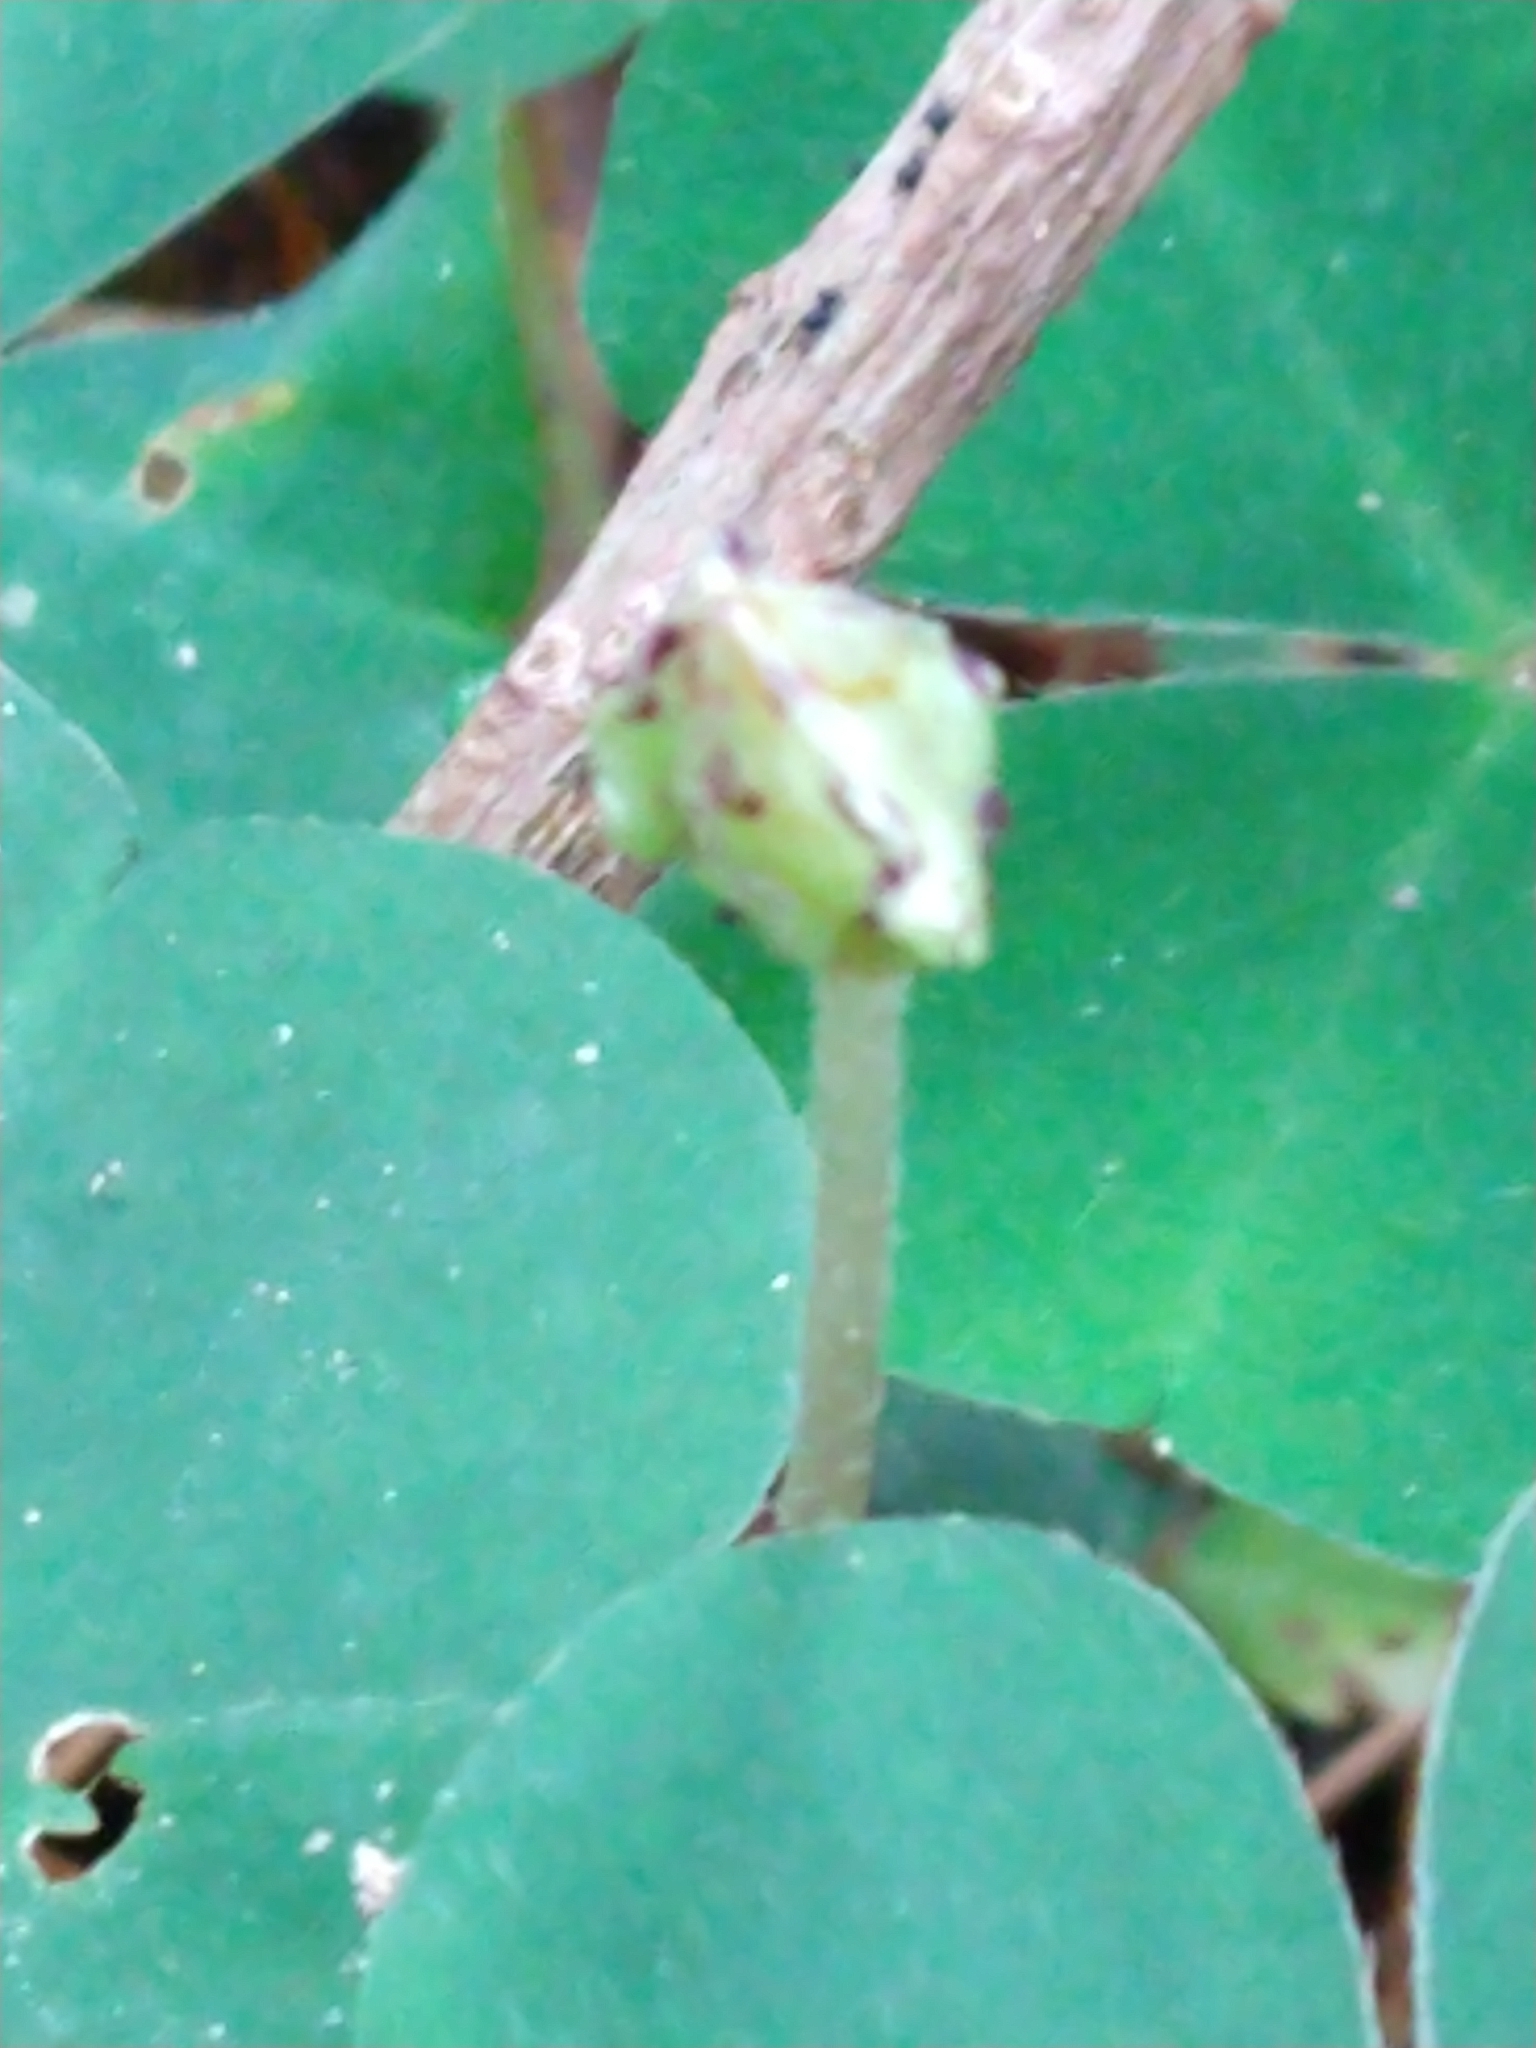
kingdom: Plantae
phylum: Tracheophyta
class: Magnoliopsida
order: Oxalidales
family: Oxalidaceae
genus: Oxalis
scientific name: Oxalis acetosella
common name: Wood-sorrel
